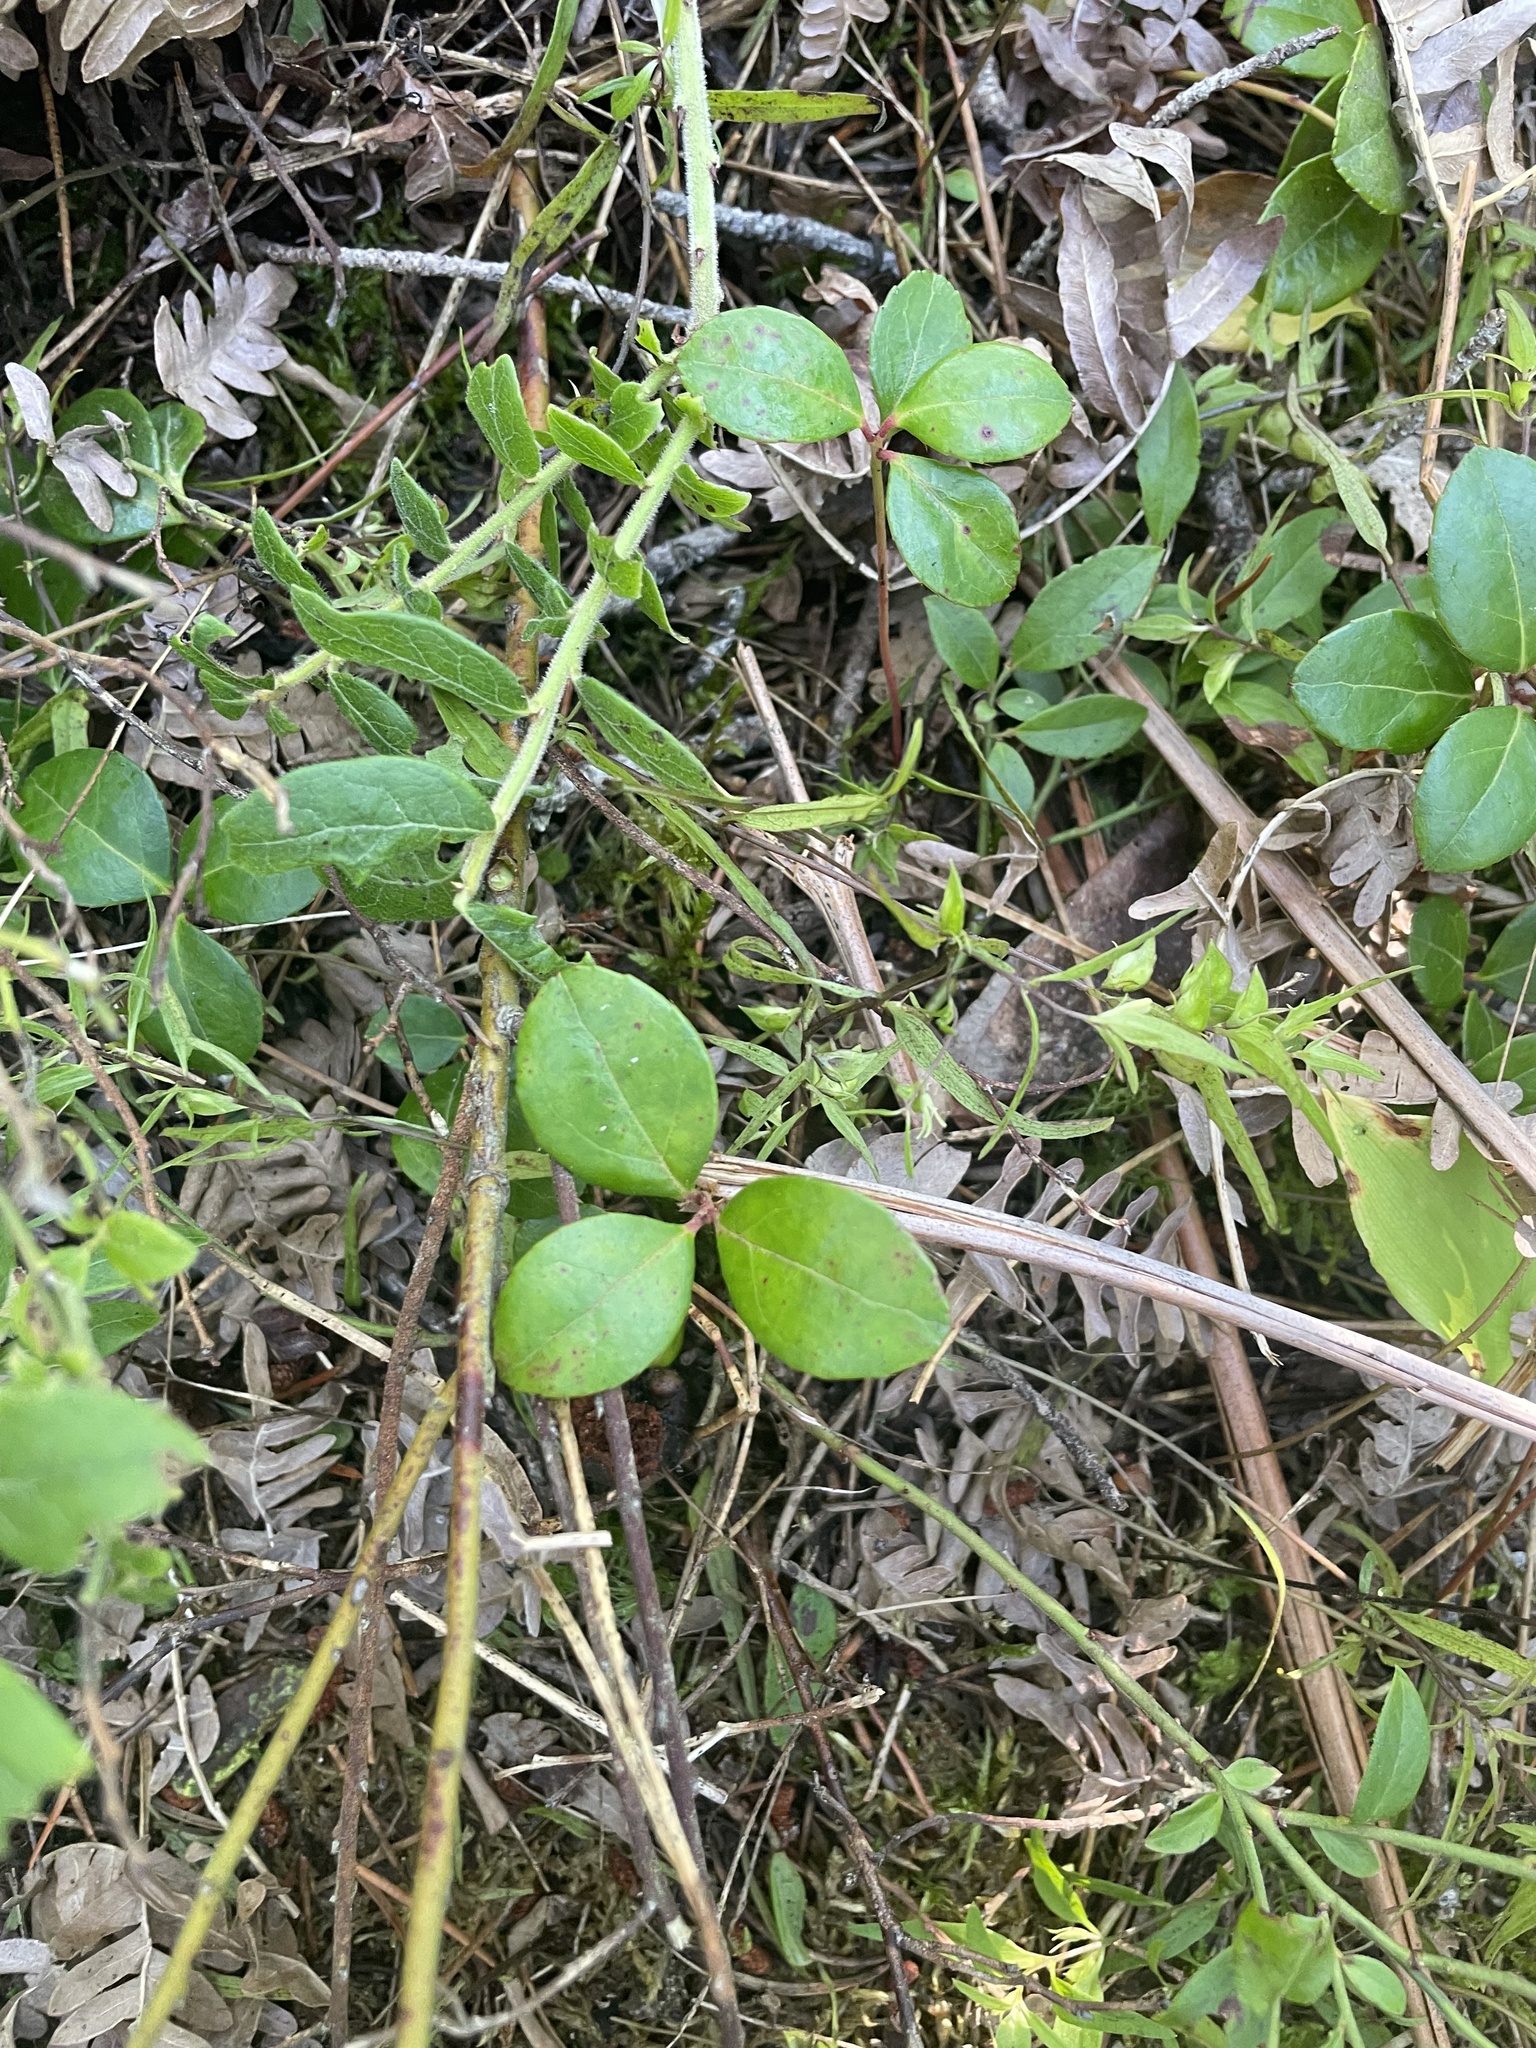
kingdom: Plantae
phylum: Tracheophyta
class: Magnoliopsida
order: Ericales
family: Ericaceae
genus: Gaultheria
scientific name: Gaultheria procumbens
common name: Checkerberry
